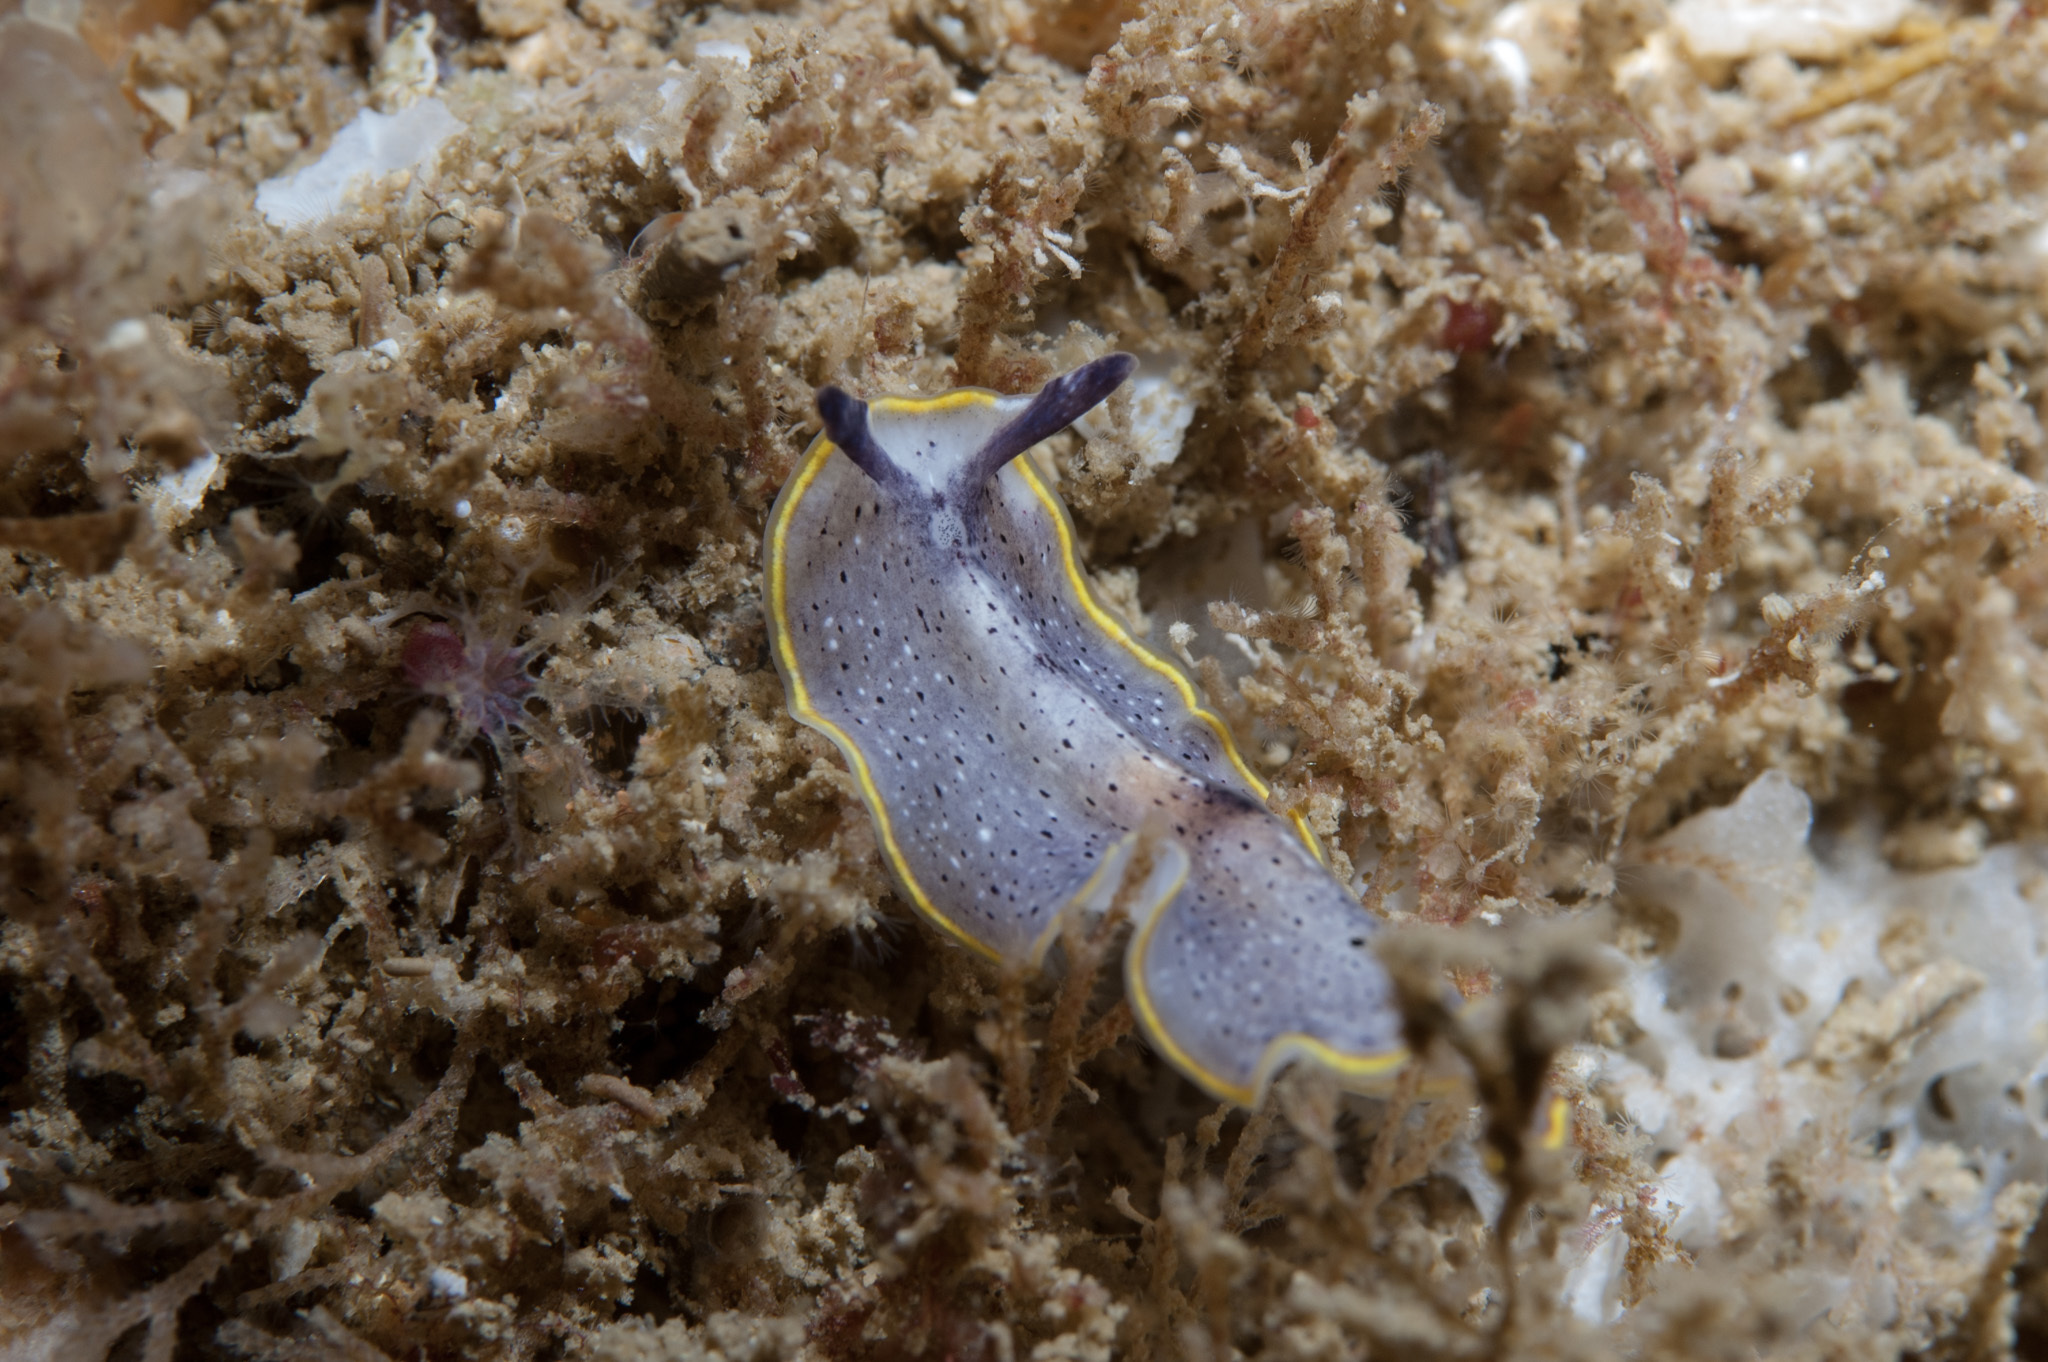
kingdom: Animalia
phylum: Platyhelminthes
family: Euryleptidae
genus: Prostheceraeus
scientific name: Prostheceraeus moseleyi
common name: Moseley's flatworm
